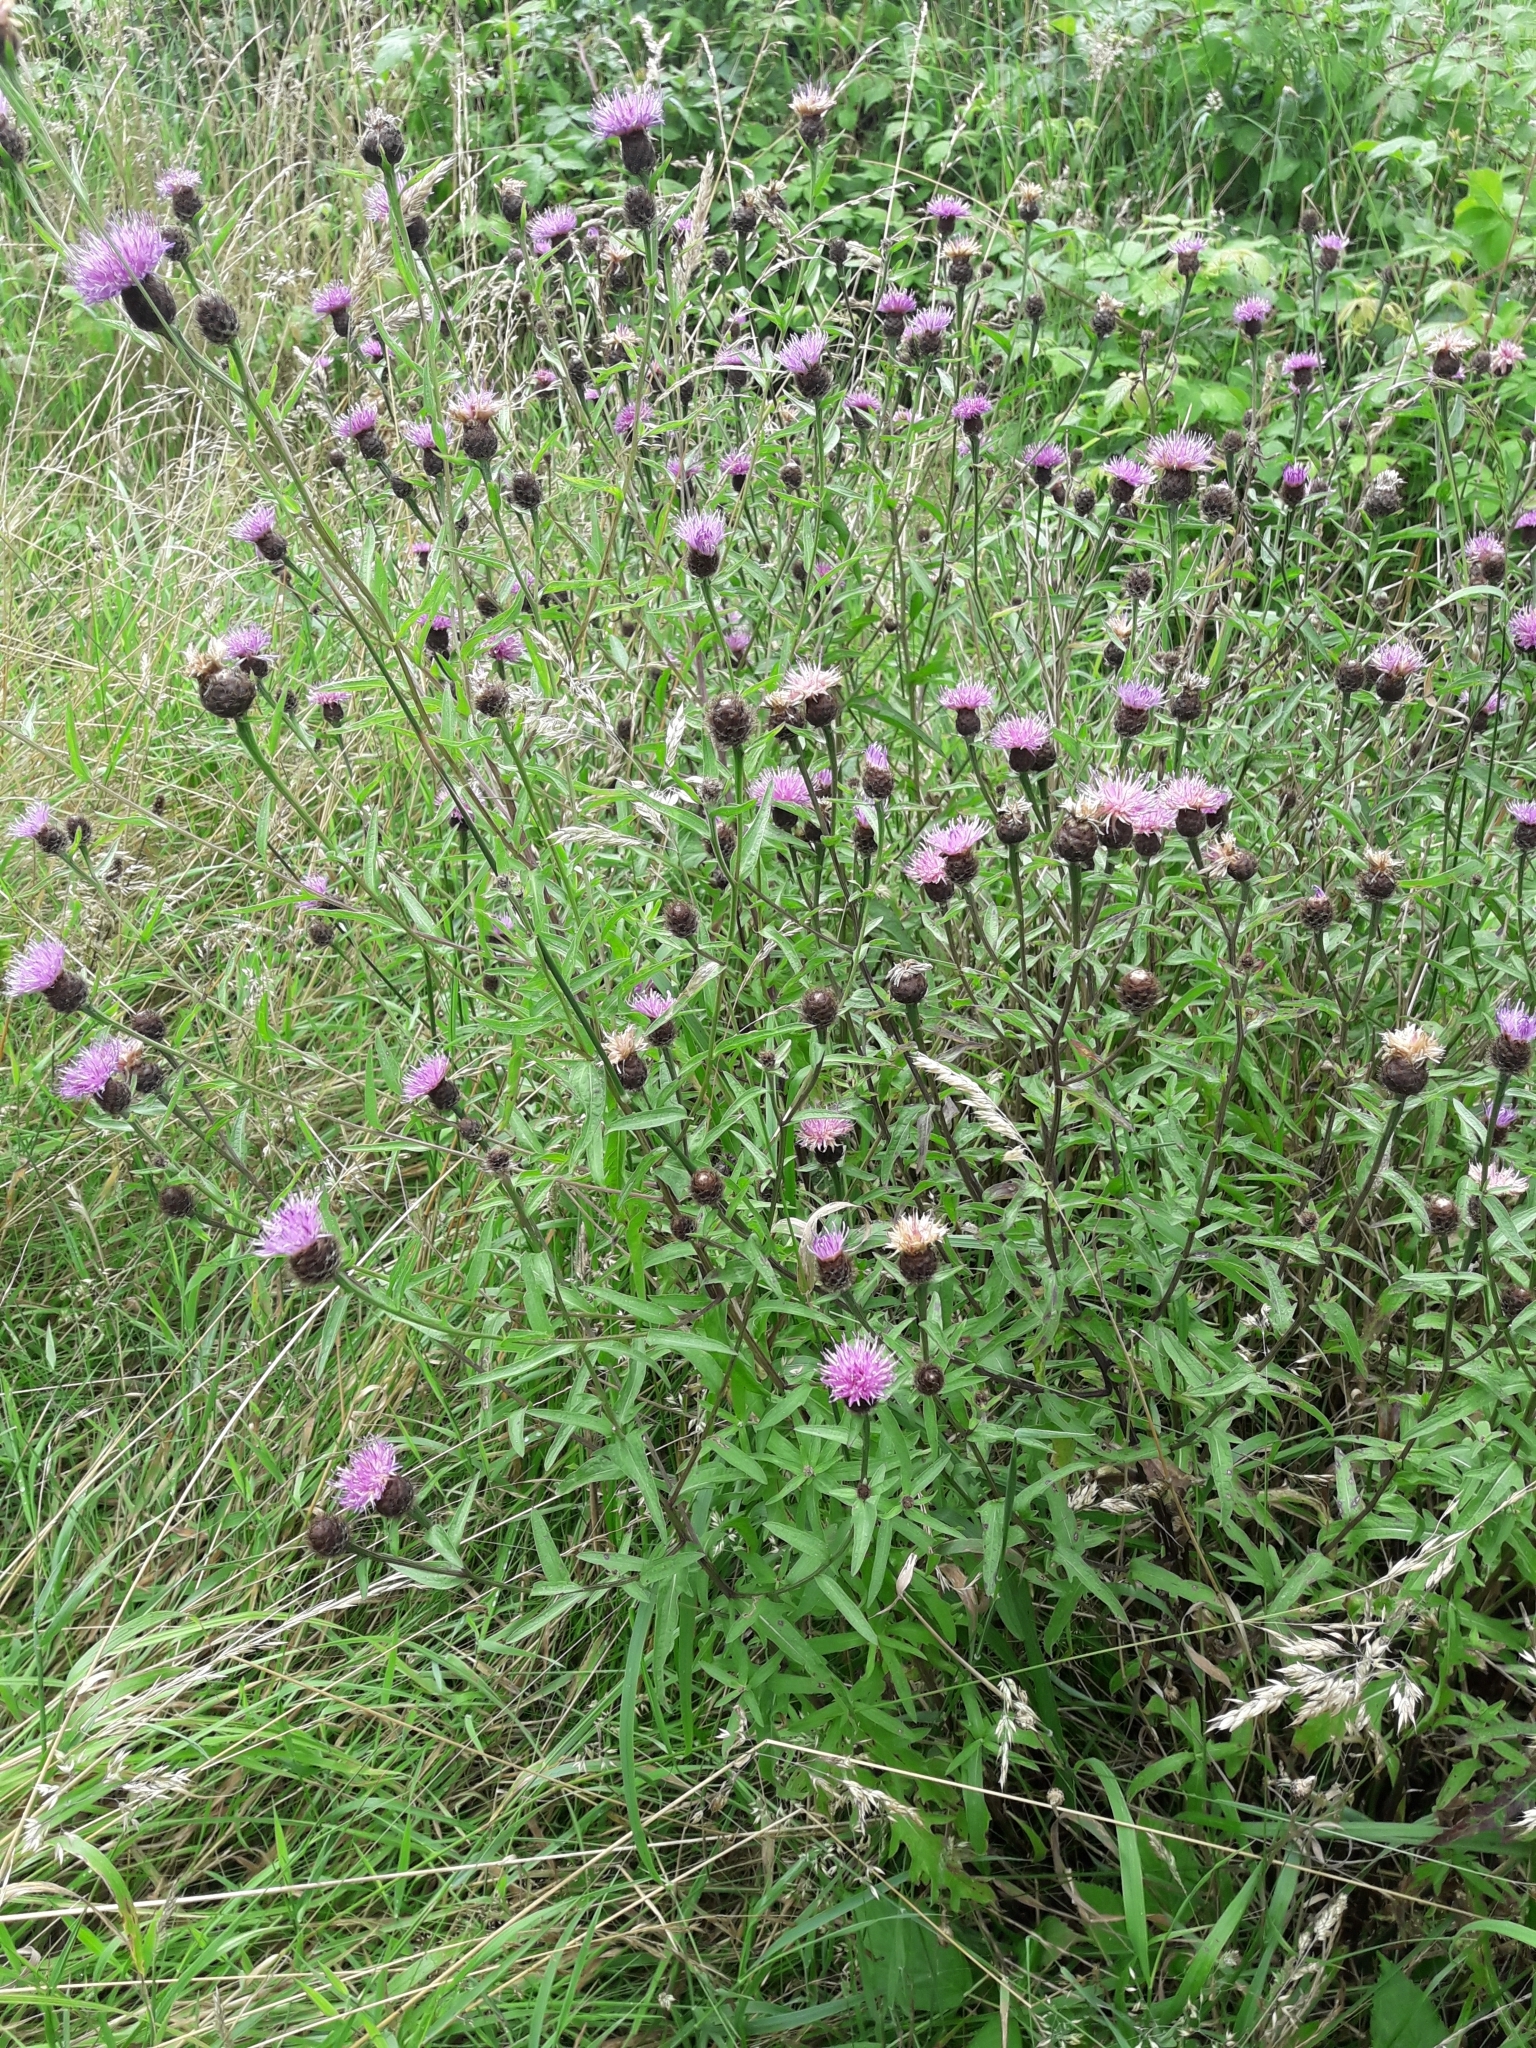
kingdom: Plantae
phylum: Tracheophyta
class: Magnoliopsida
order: Asterales
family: Asteraceae
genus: Centaurea
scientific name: Centaurea nigra
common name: Lesser knapweed
